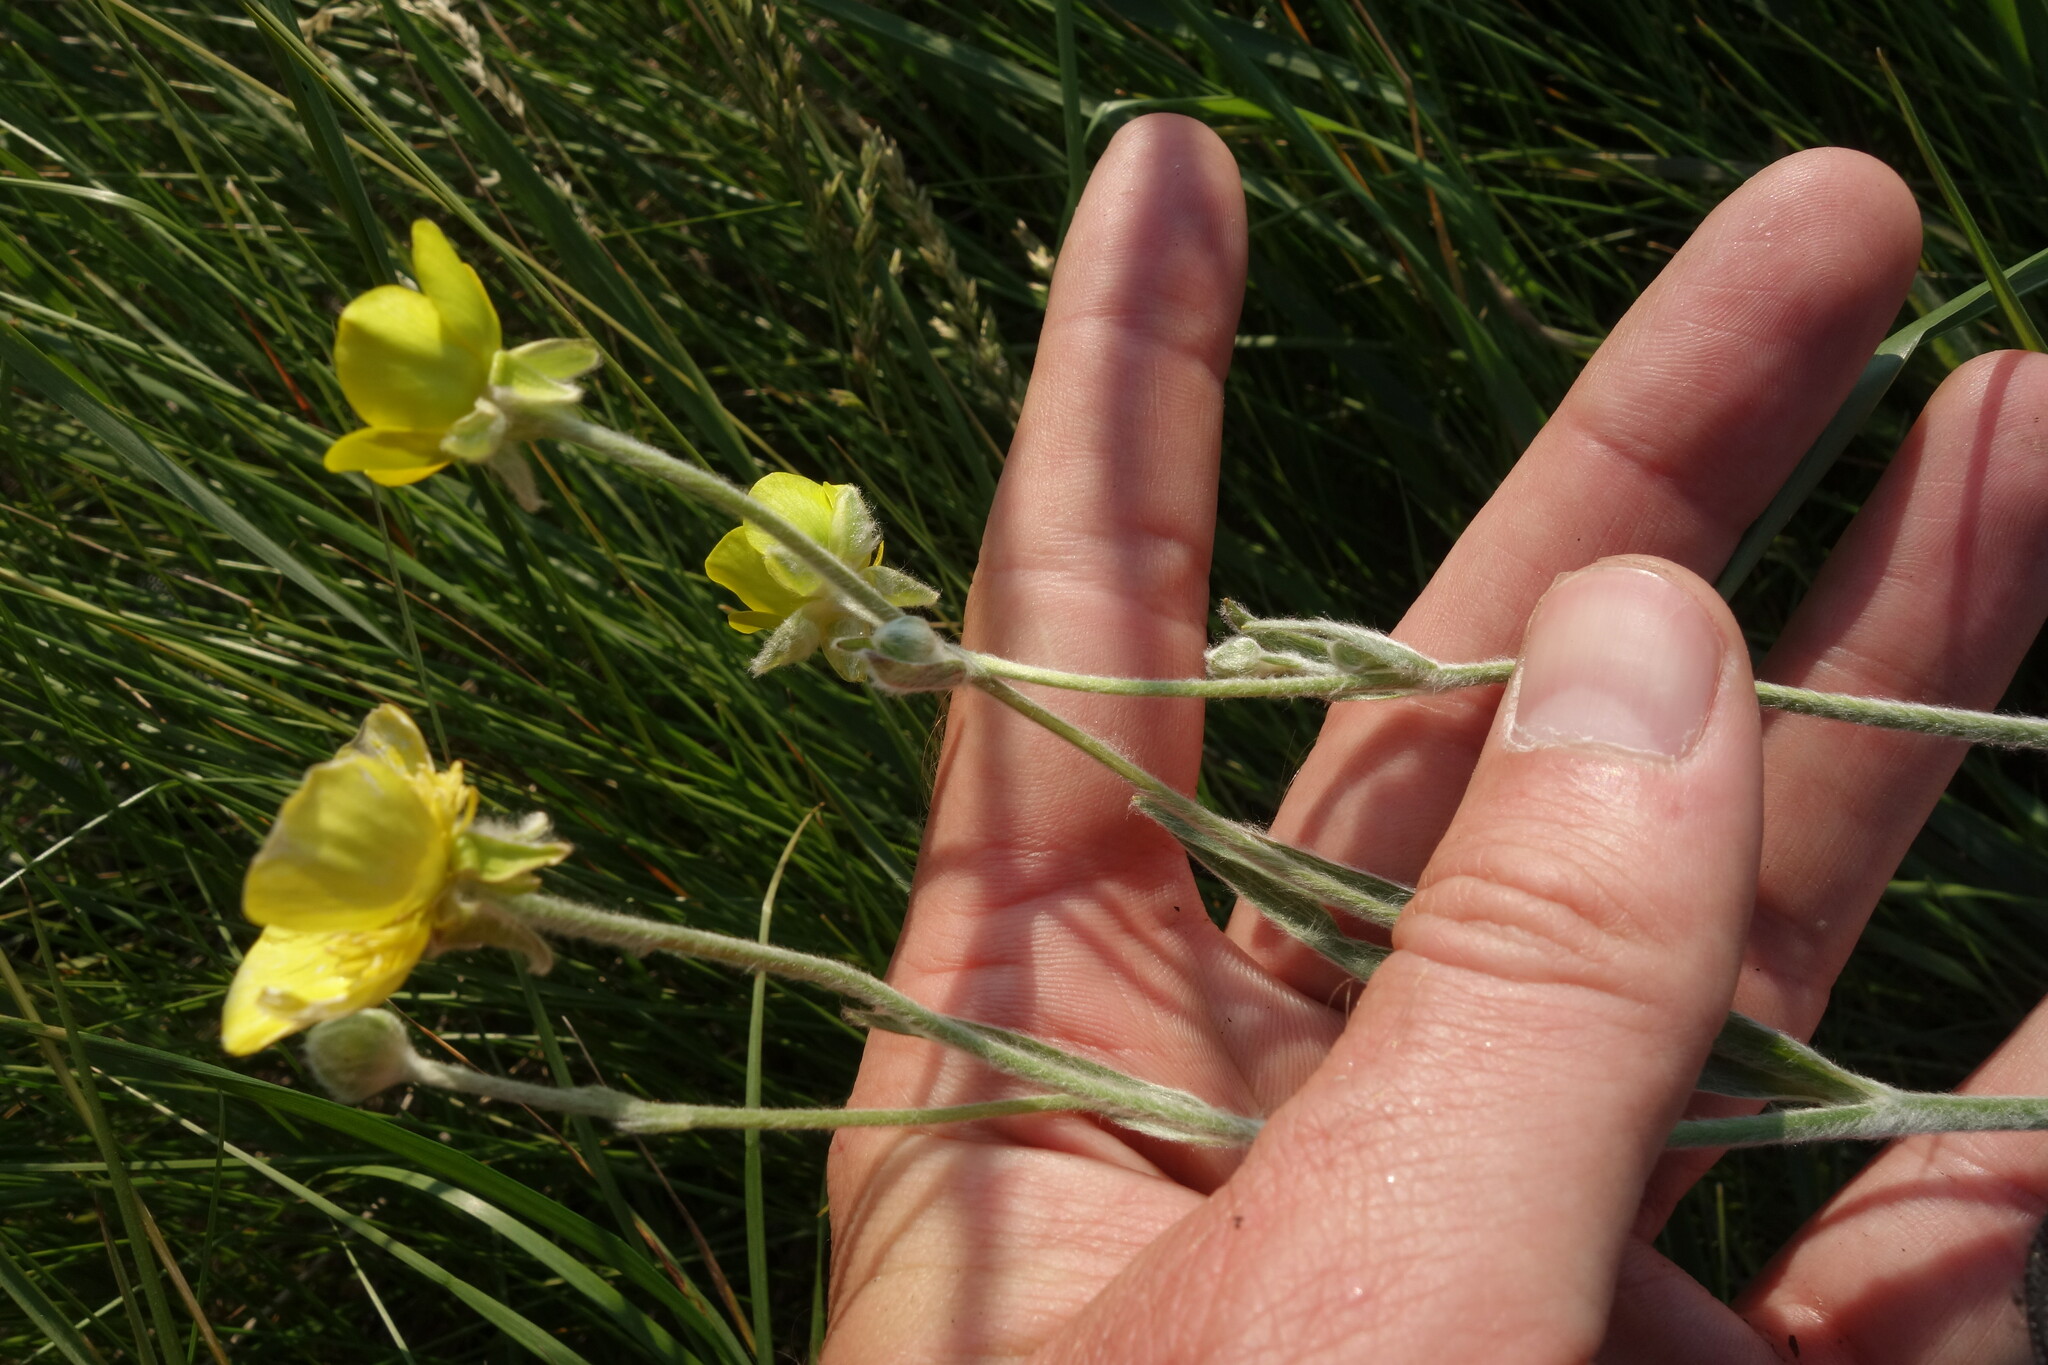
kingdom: Plantae
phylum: Tracheophyta
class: Magnoliopsida
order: Ranunculales
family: Ranunculaceae
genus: Ranunculus
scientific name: Ranunculus illyricus
